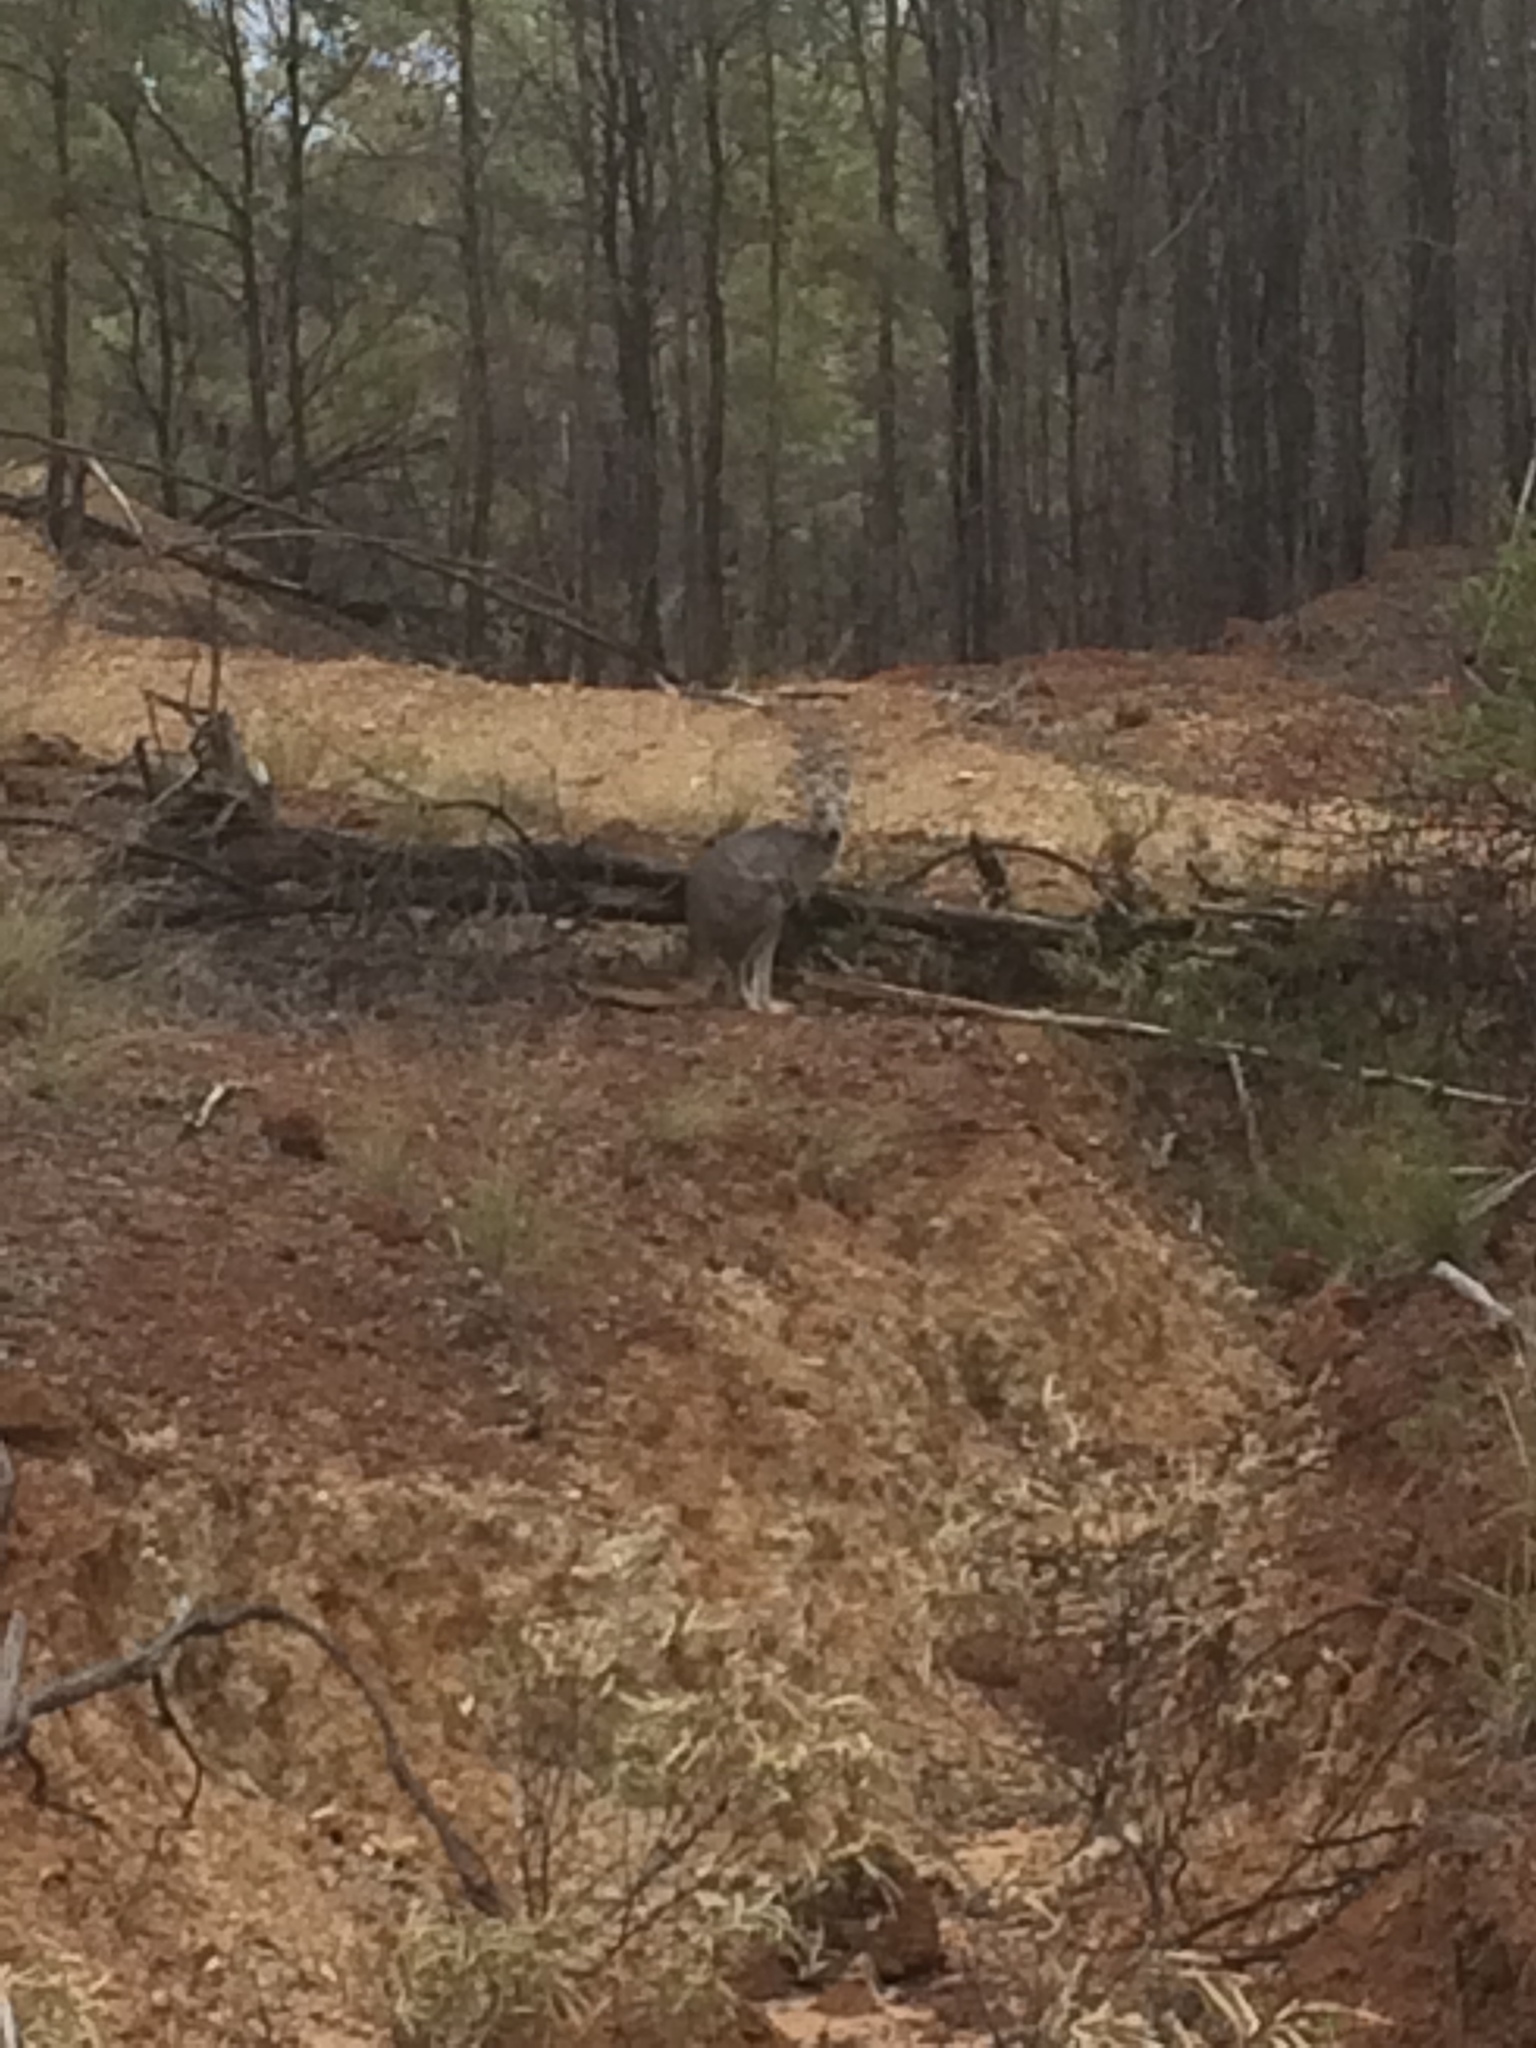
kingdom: Animalia
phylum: Chordata
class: Mammalia
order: Diprotodontia
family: Macropodidae
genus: Macropus
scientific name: Macropus robustus
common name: Eastern wallaroo
